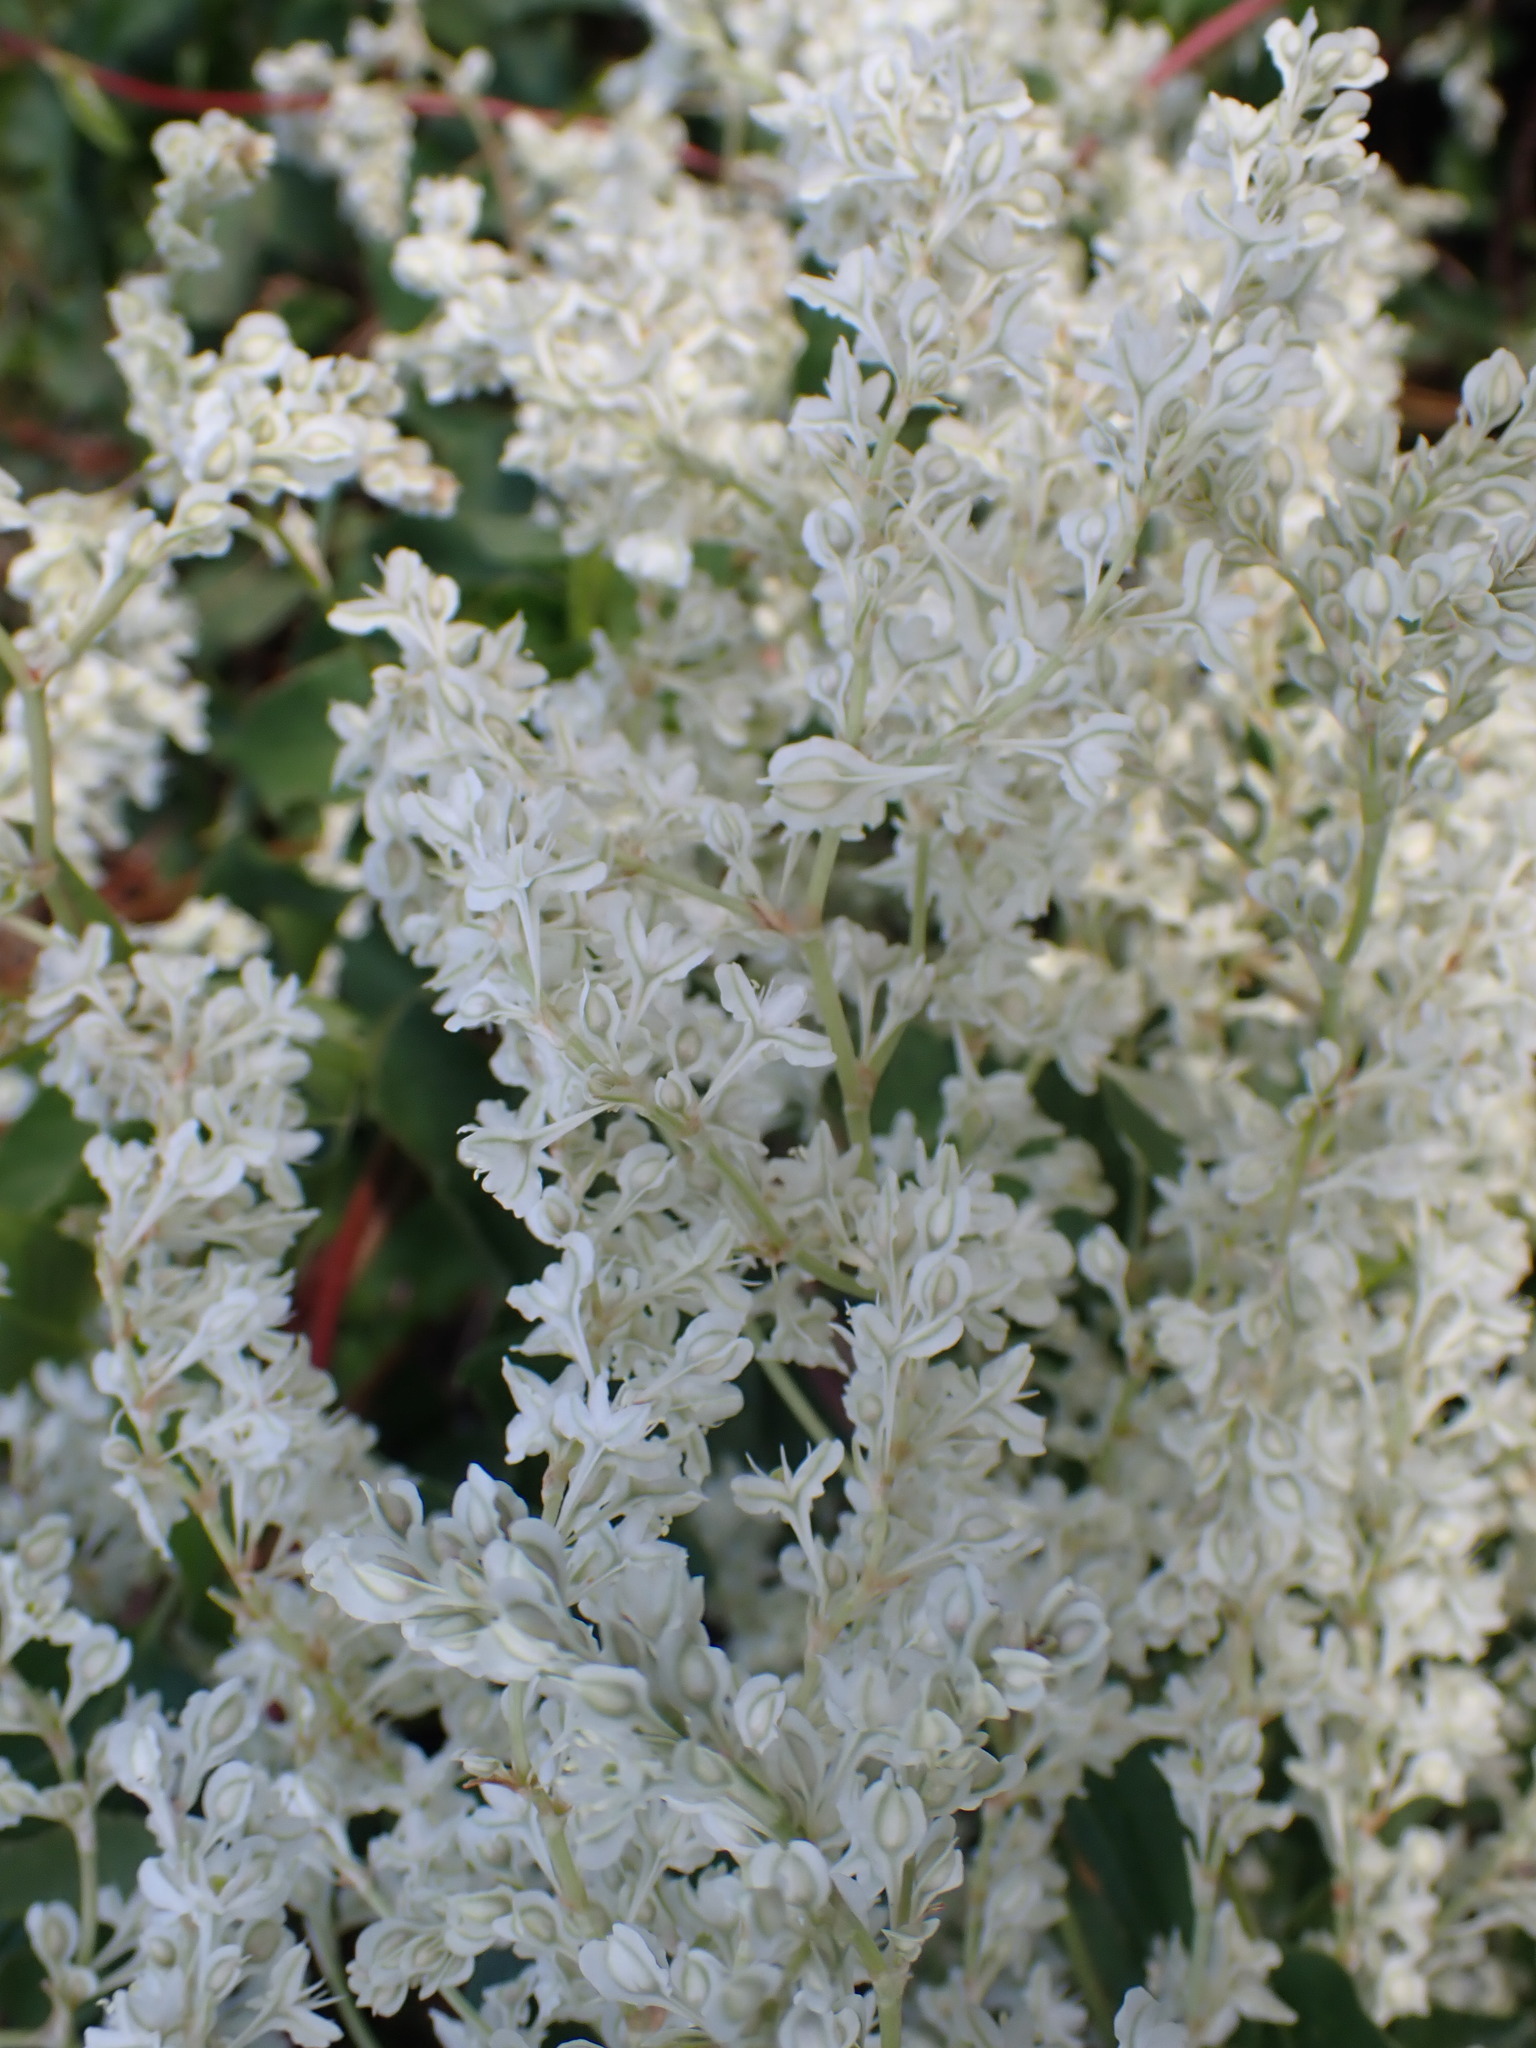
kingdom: Plantae
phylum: Tracheophyta
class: Magnoliopsida
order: Caryophyllales
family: Polygonaceae
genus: Fallopia
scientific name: Fallopia baldschuanica
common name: Russian-vine
